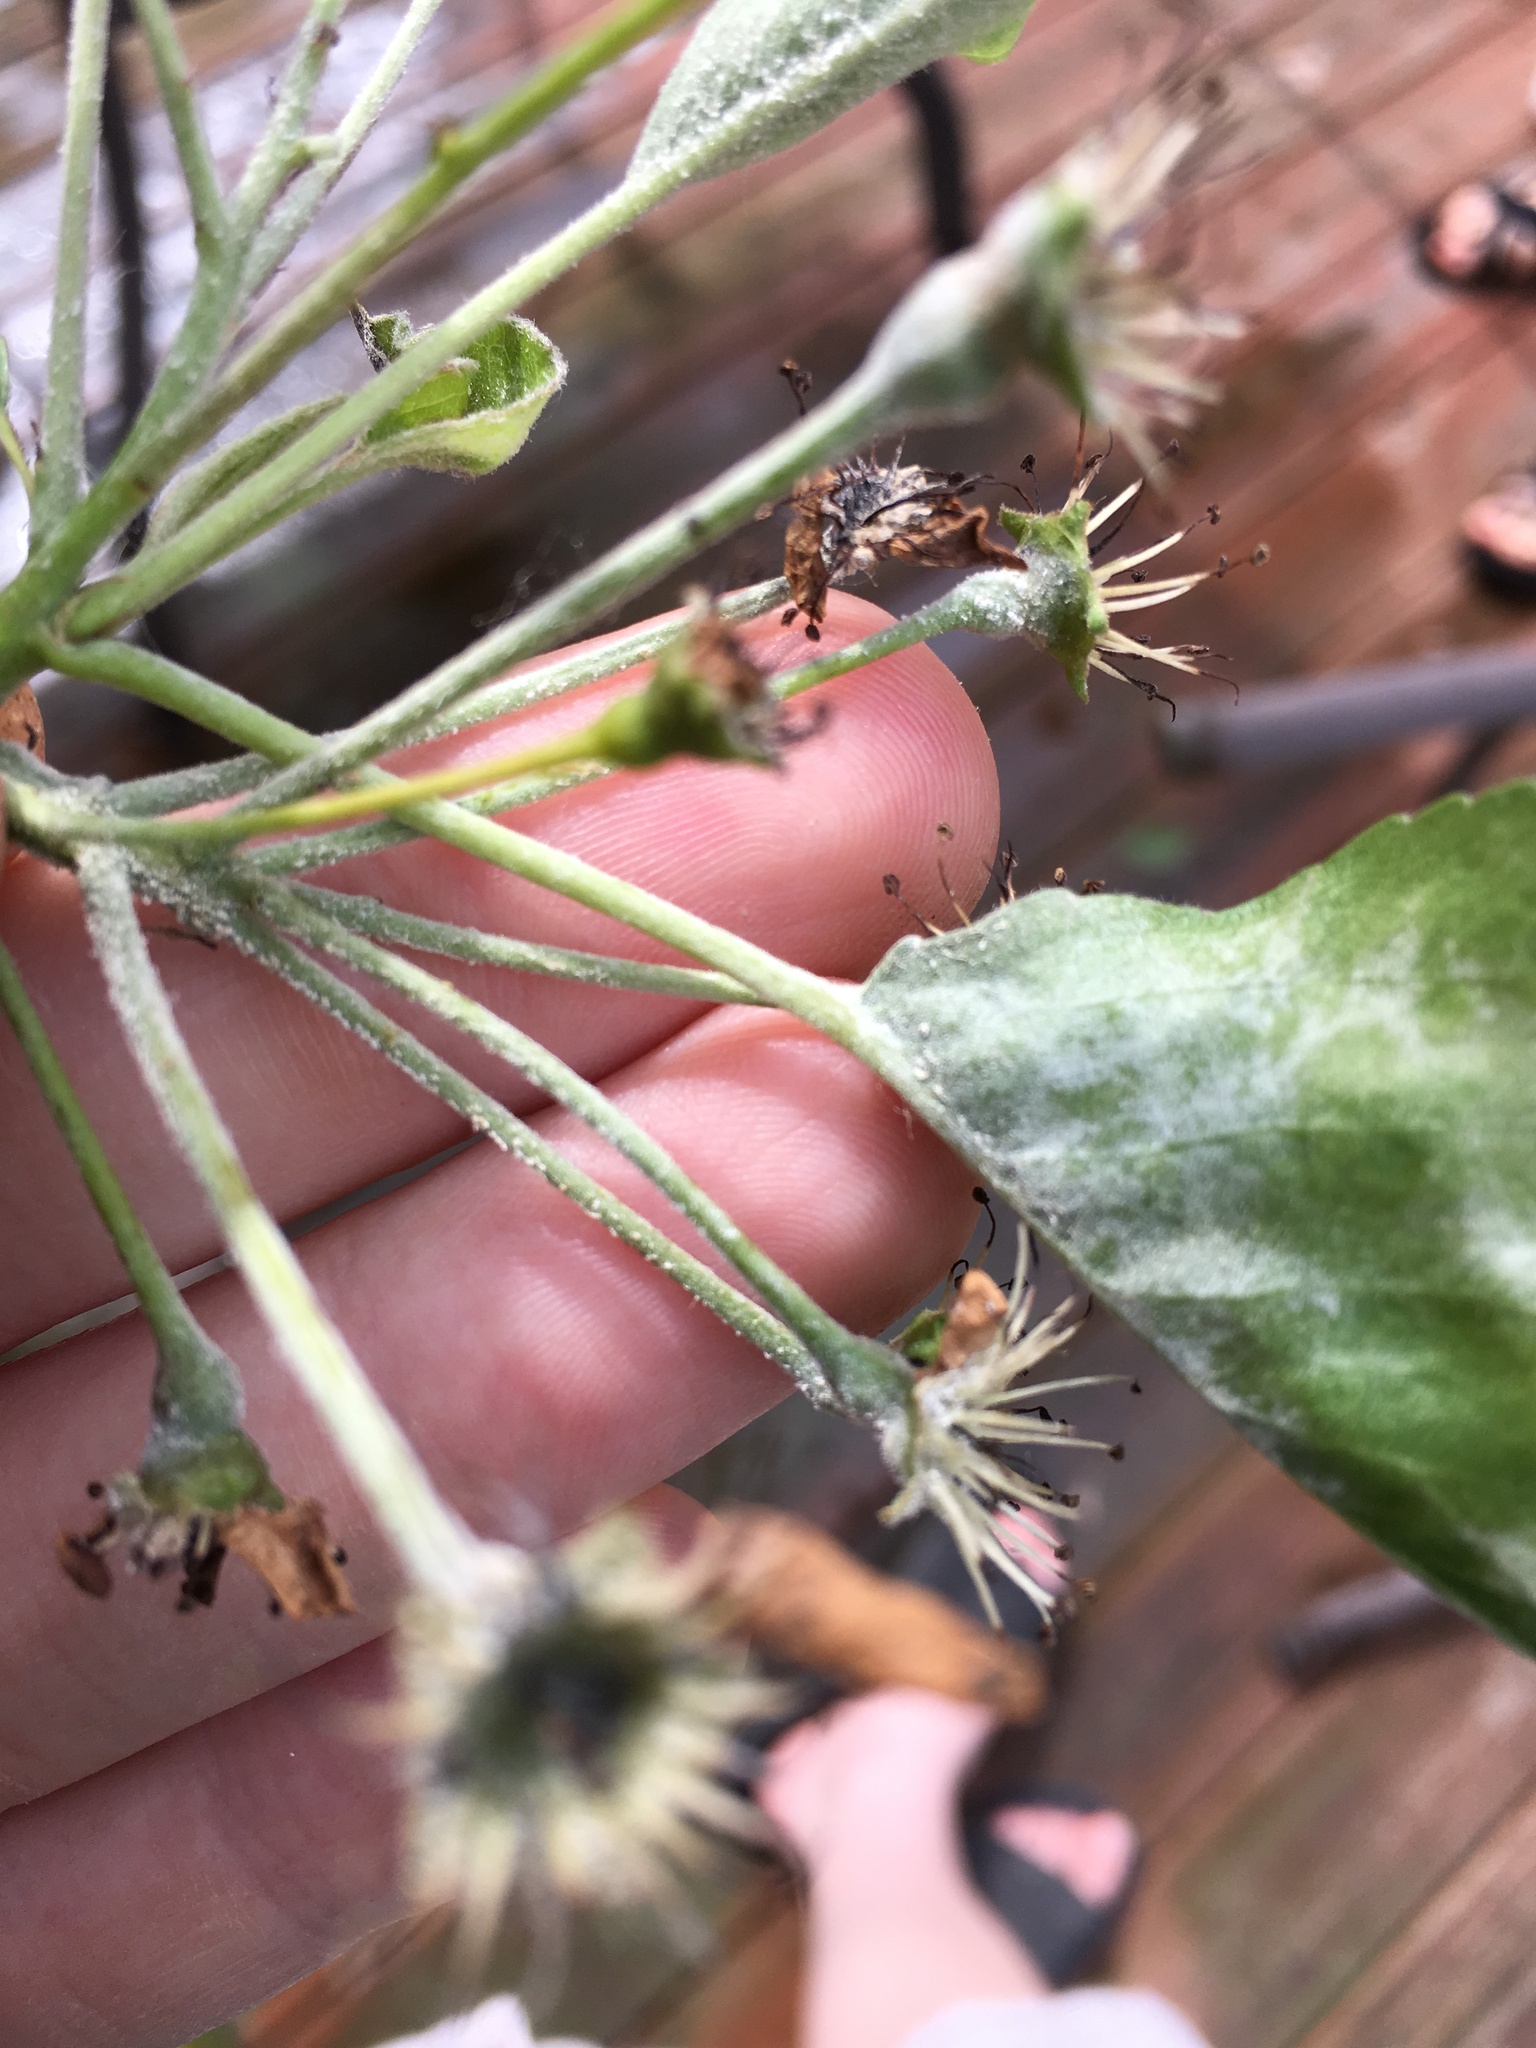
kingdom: Fungi
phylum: Ascomycota
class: Leotiomycetes
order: Helotiales
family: Erysiphaceae
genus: Podosphaera
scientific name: Podosphaera leucotricha
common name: Apple powdery mildew
